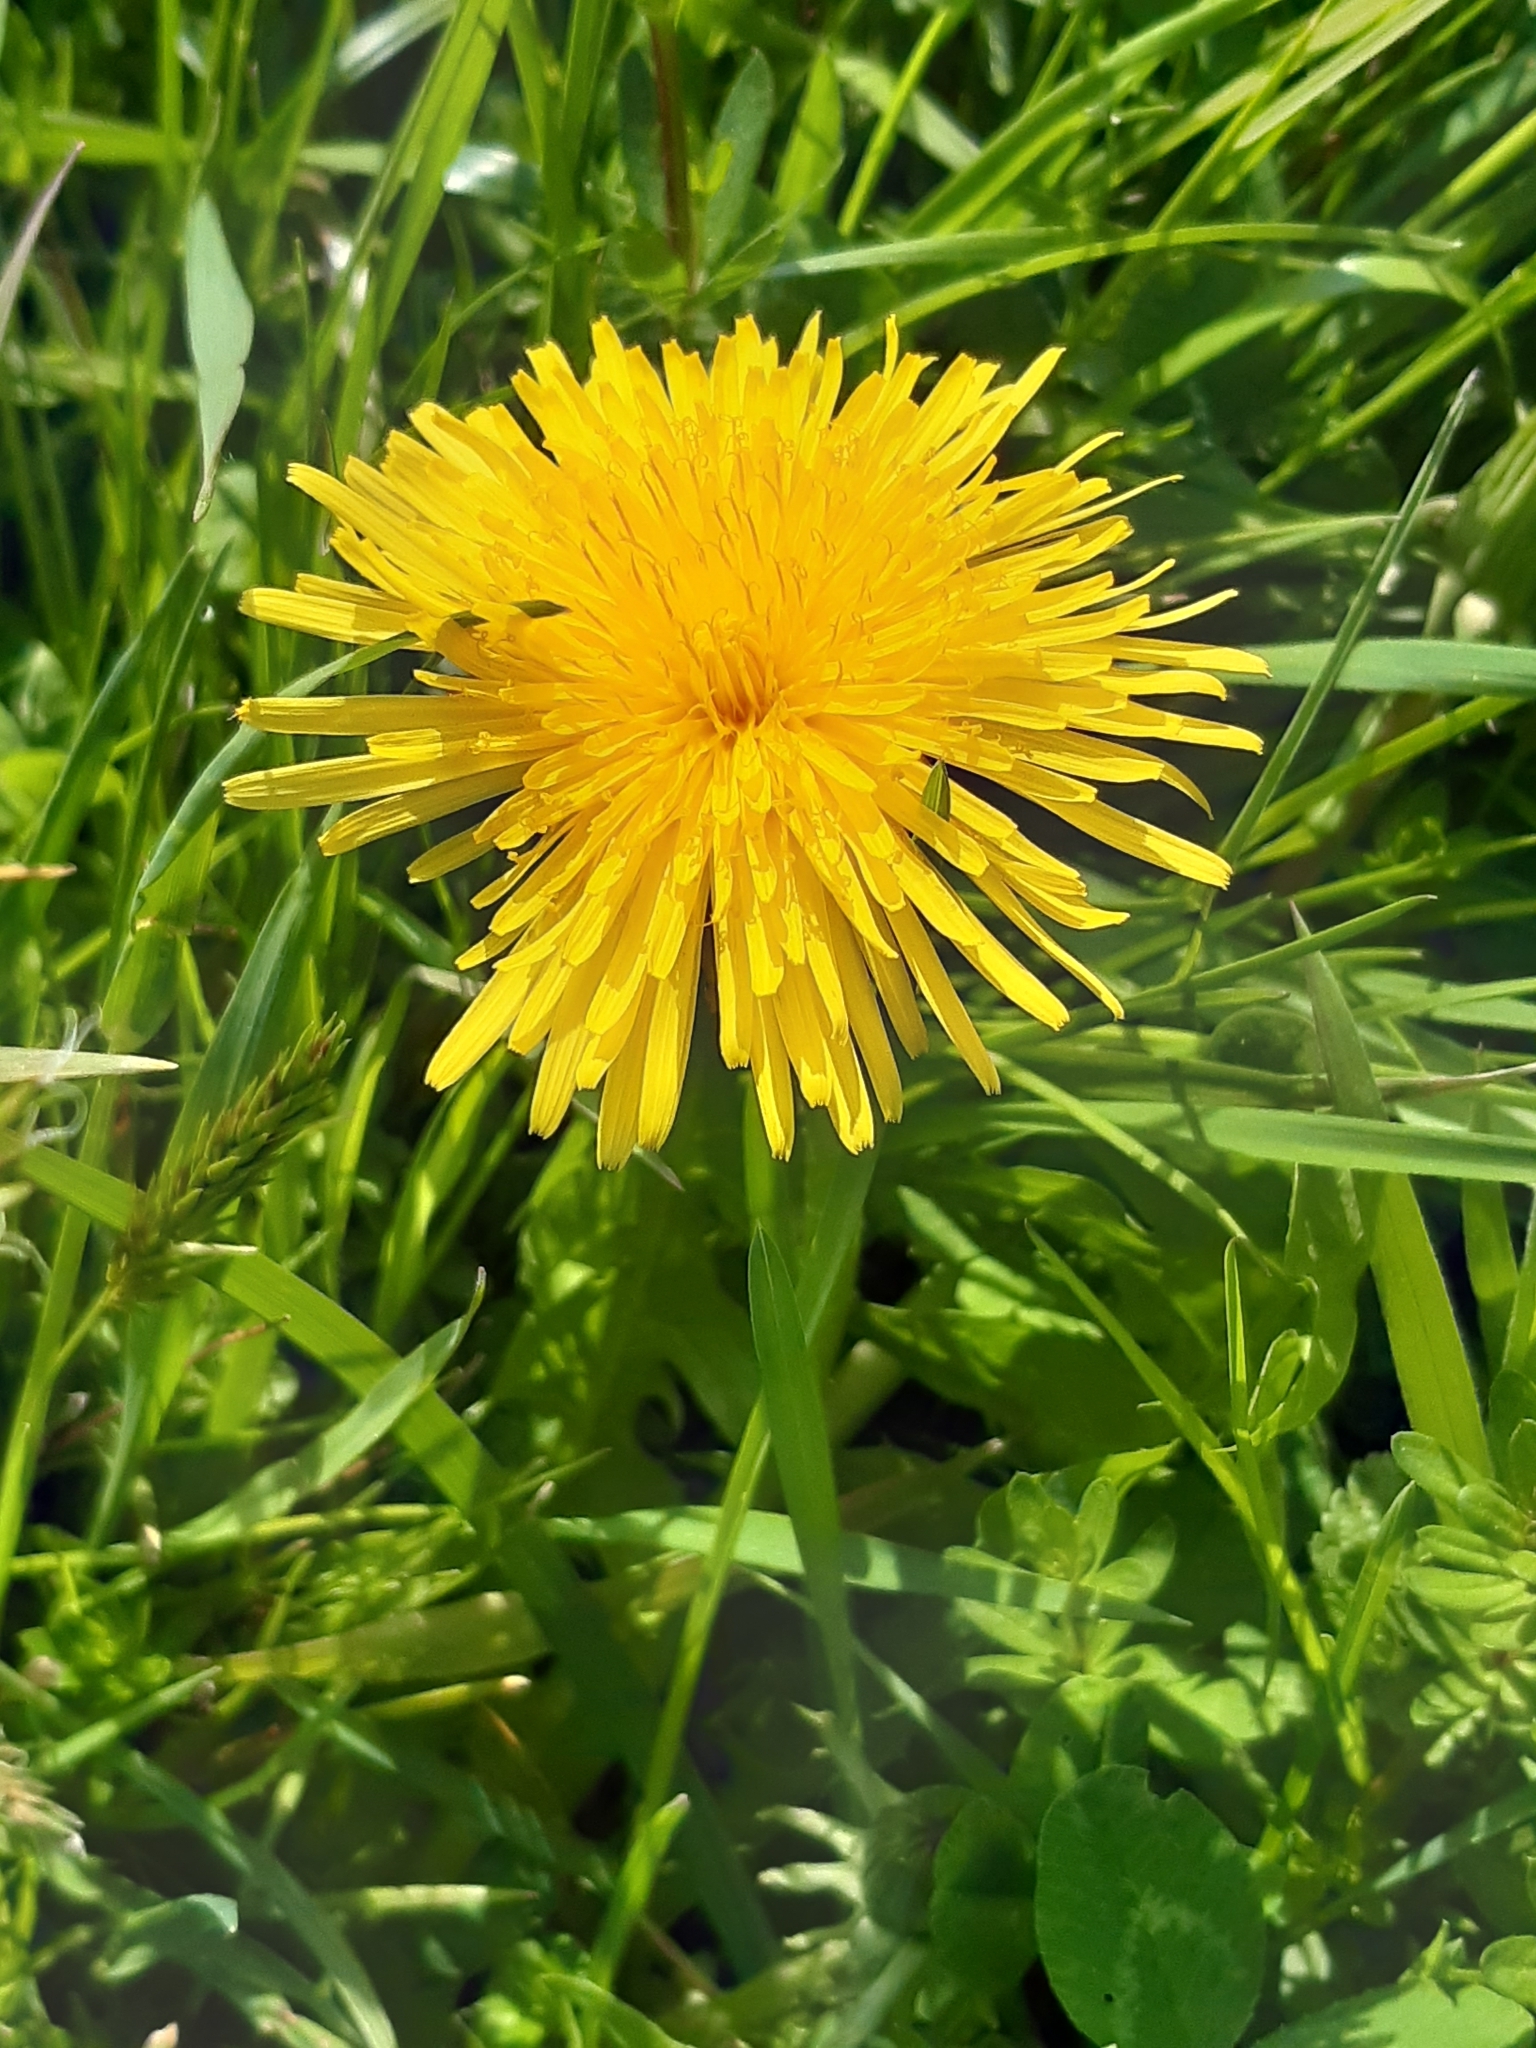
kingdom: Plantae
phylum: Tracheophyta
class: Magnoliopsida
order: Asterales
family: Asteraceae
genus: Taraxacum
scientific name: Taraxacum officinale
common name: Common dandelion
